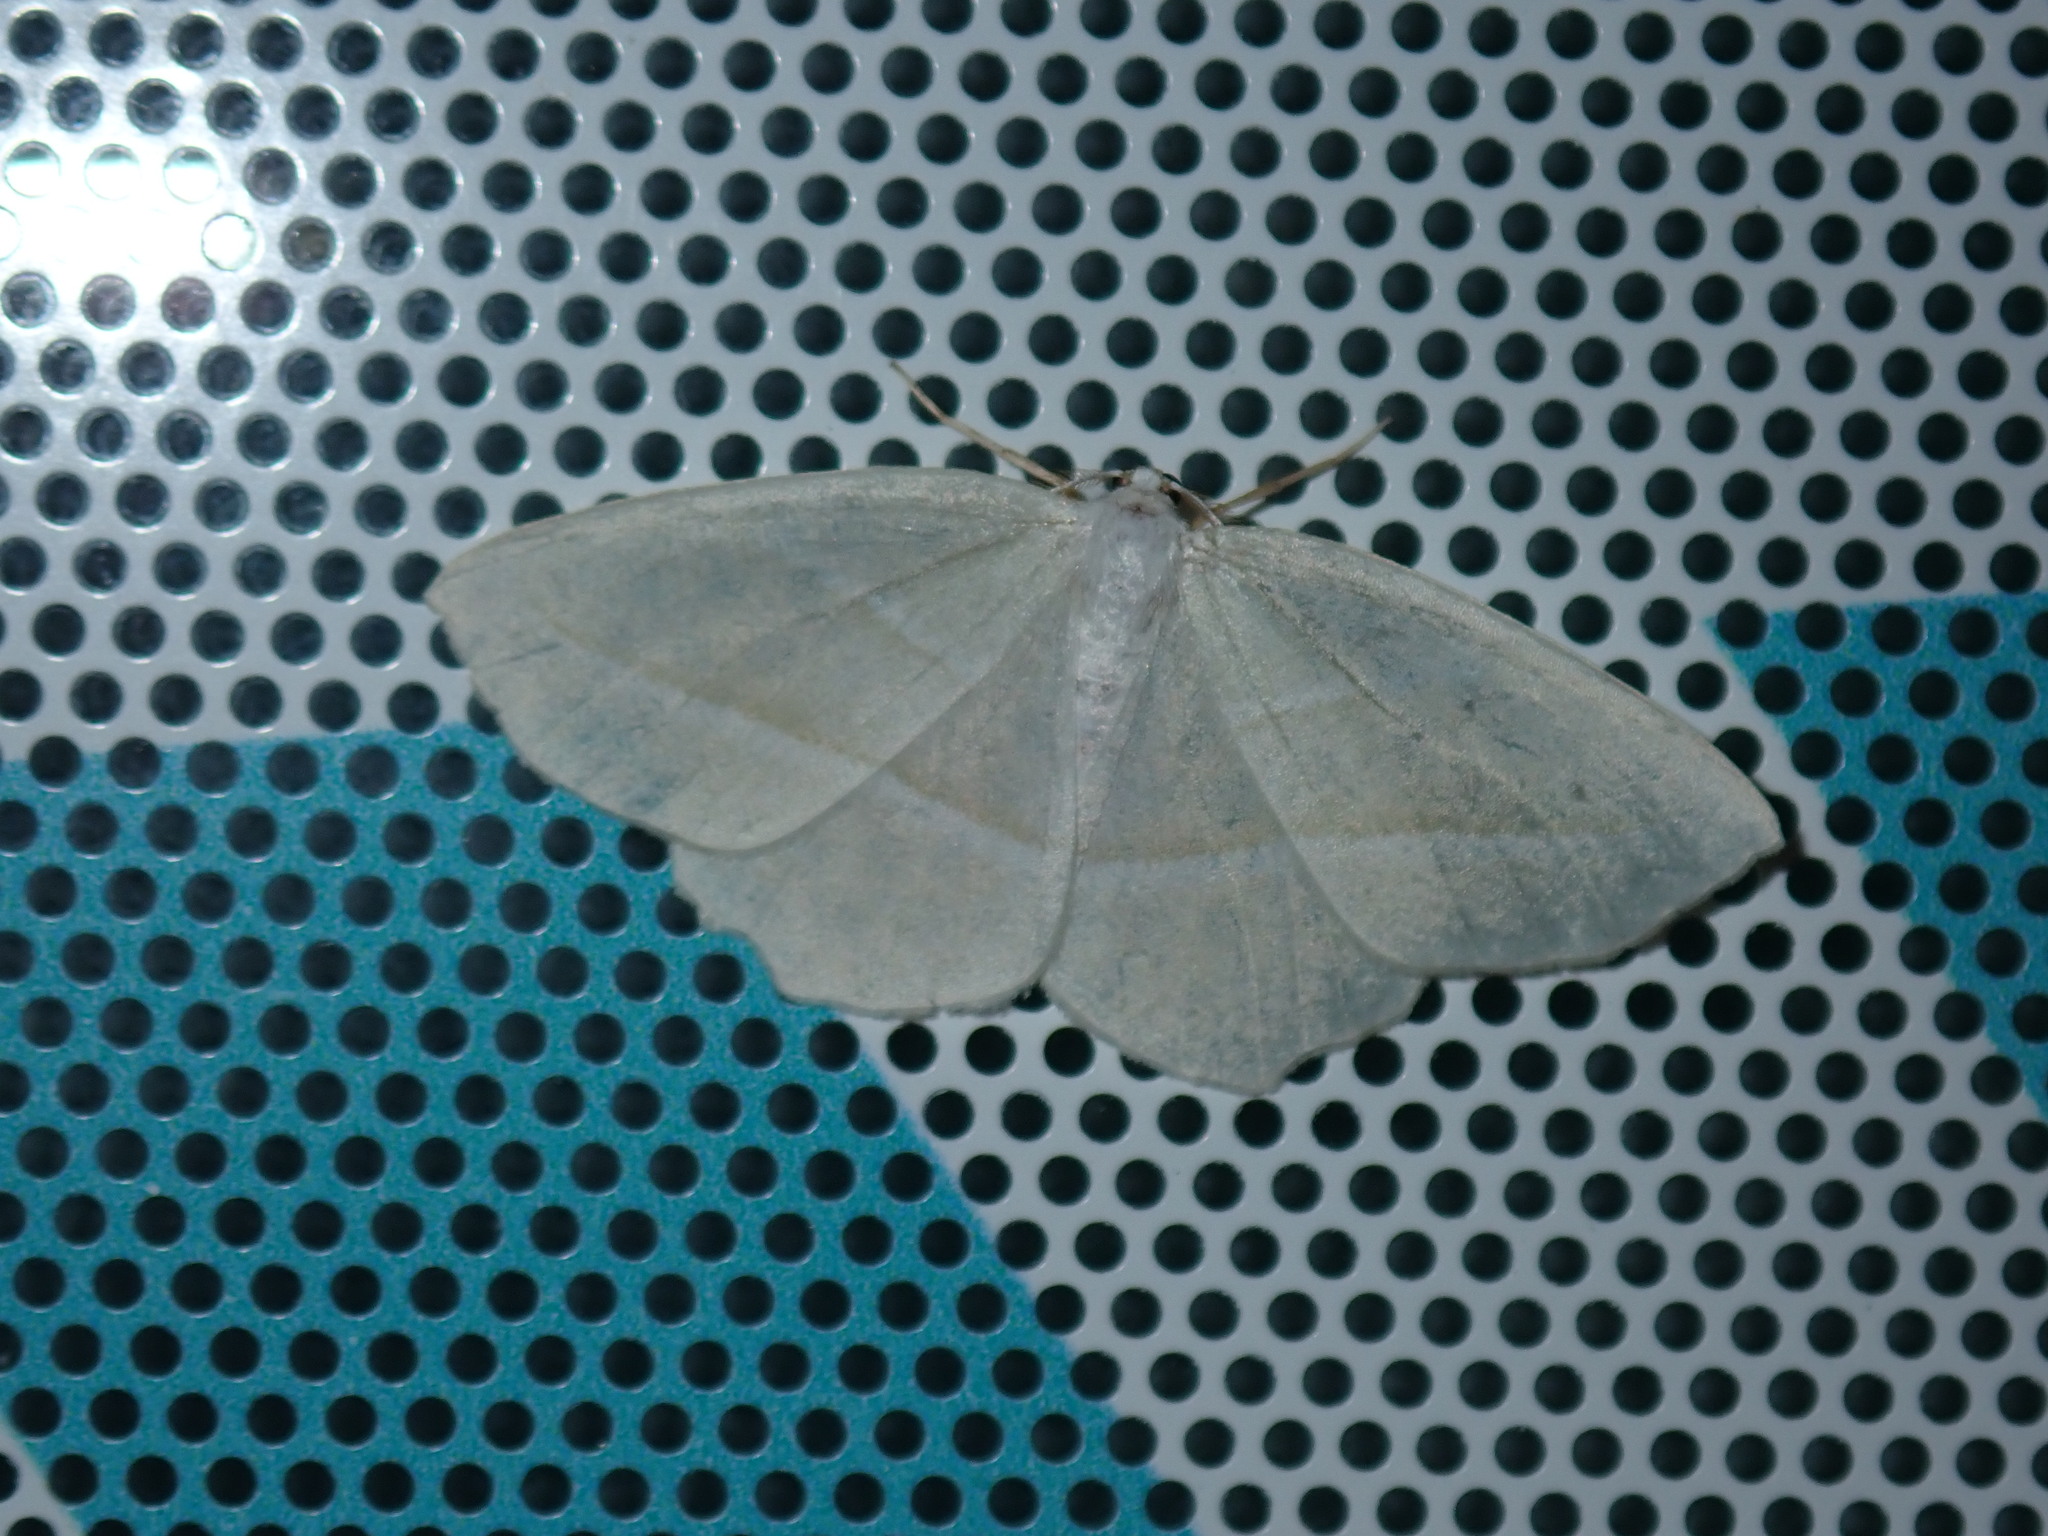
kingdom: Animalia
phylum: Arthropoda
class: Insecta
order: Lepidoptera
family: Geometridae
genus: Campaea
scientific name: Campaea perlata
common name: Fringed looper
